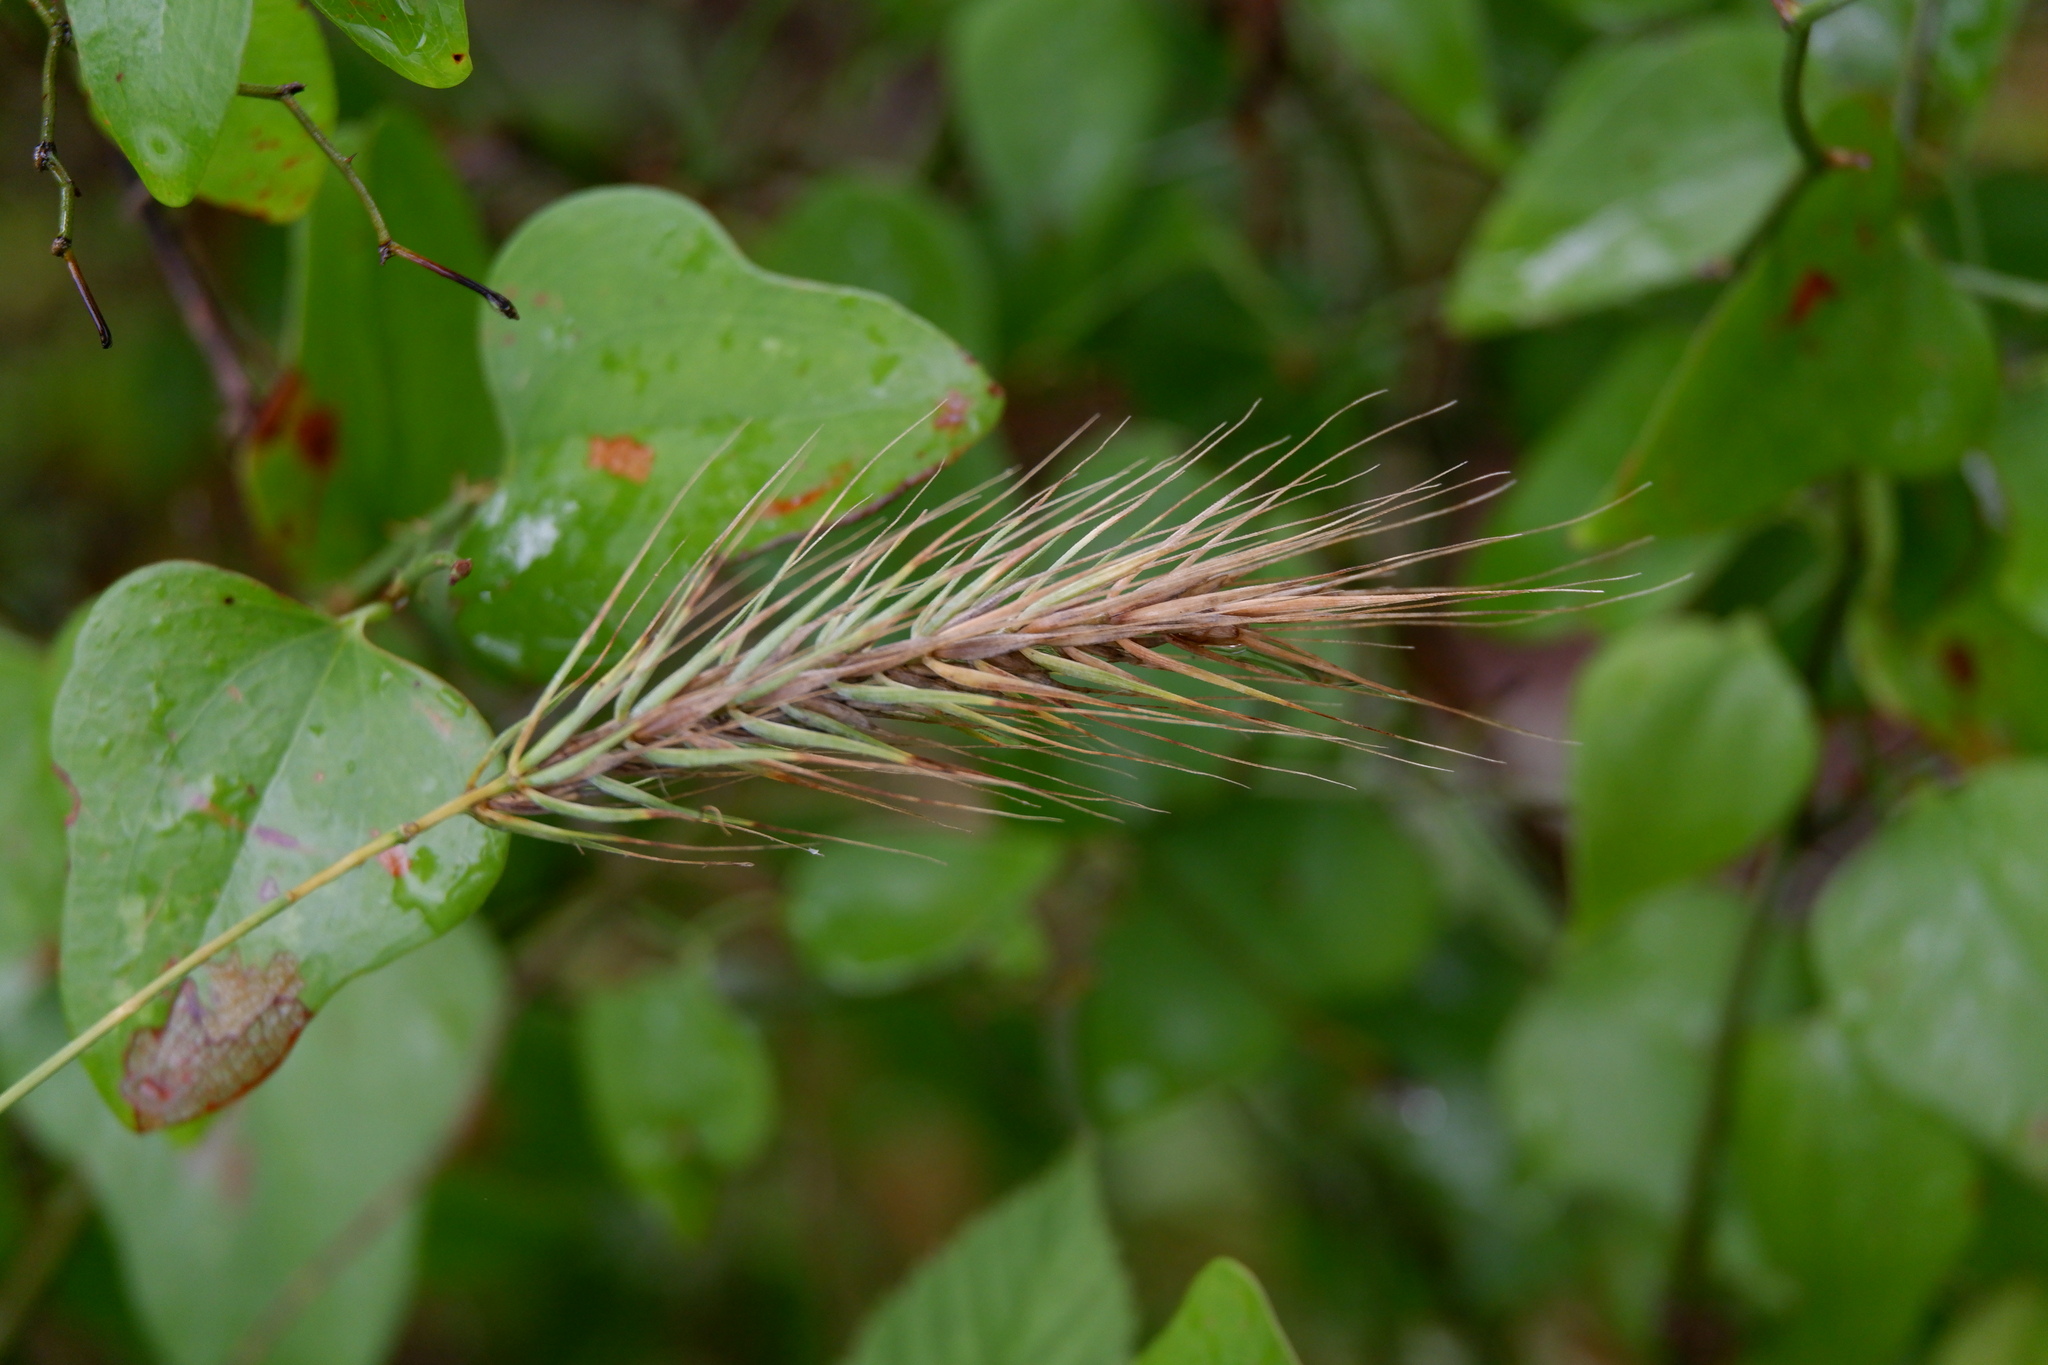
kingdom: Plantae
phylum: Tracheophyta
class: Liliopsida
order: Poales
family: Poaceae
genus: Elymus
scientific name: Elymus virginicus
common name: Common eastern wildrye
